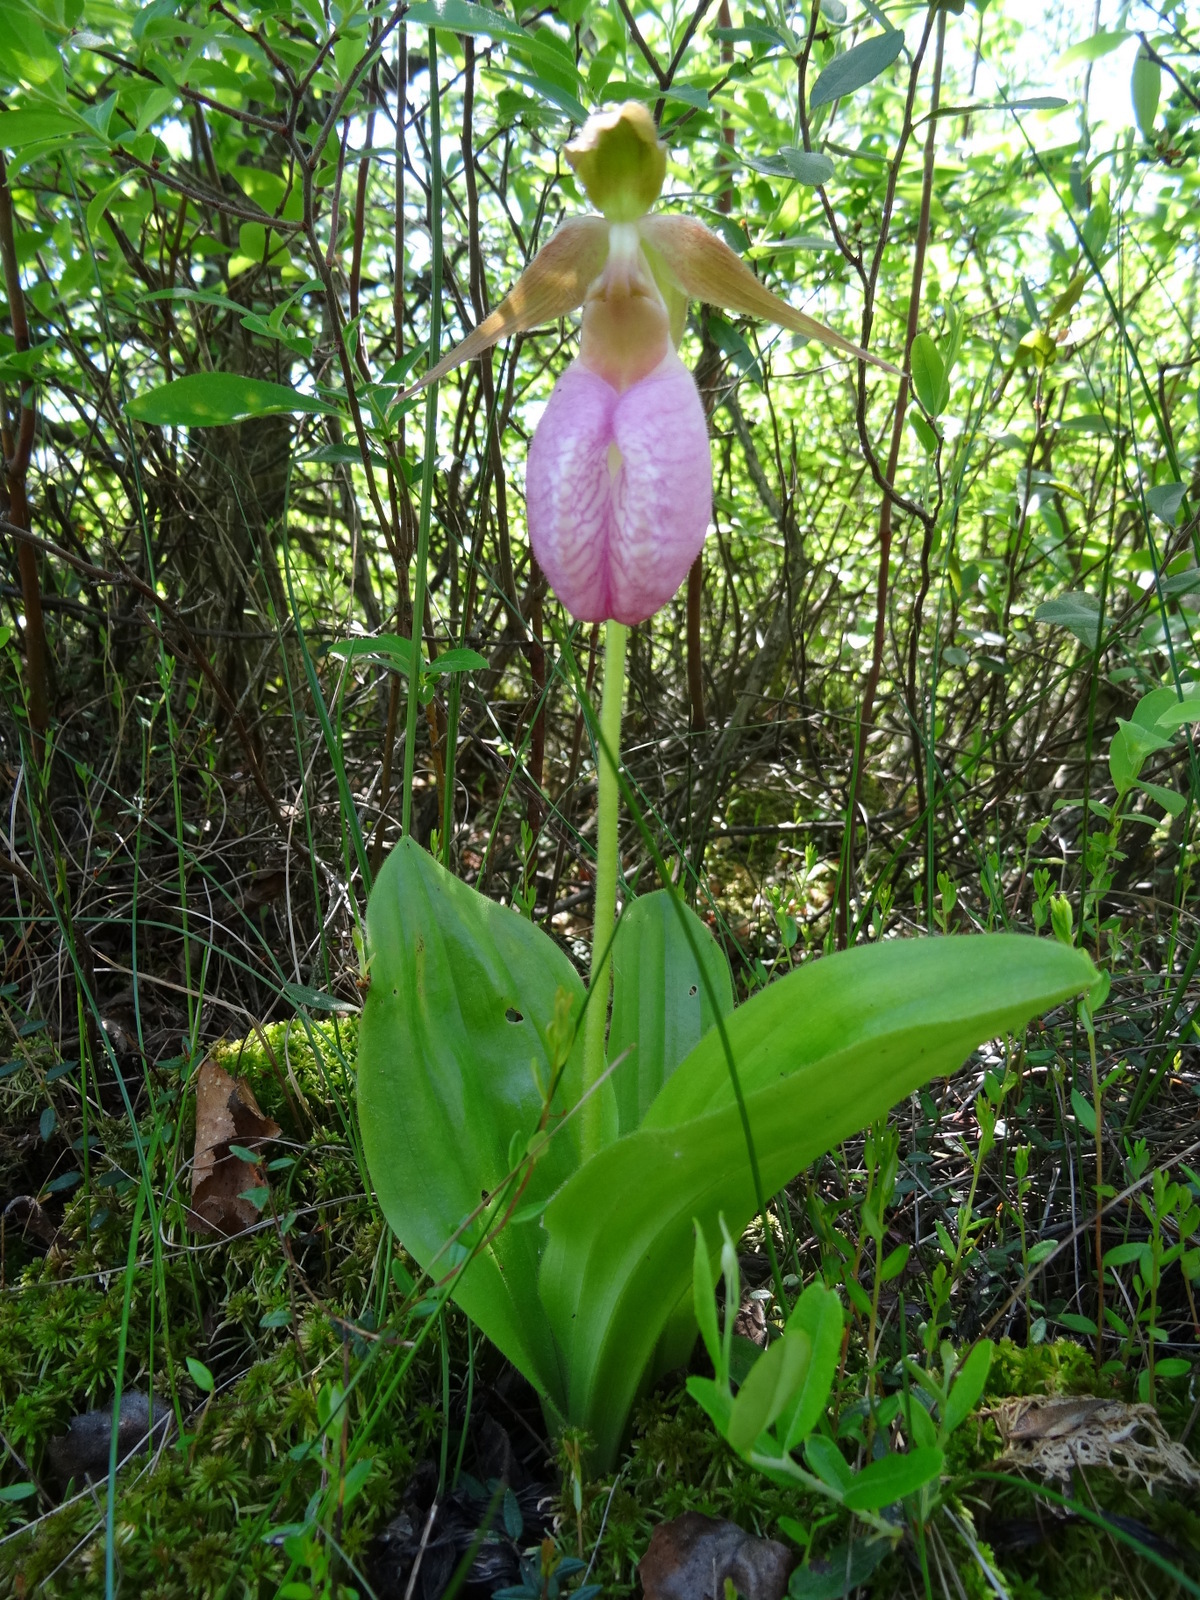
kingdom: Plantae
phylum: Tracheophyta
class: Liliopsida
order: Asparagales
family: Orchidaceae
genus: Cypripedium
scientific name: Cypripedium acaule
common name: Pink lady's-slipper
